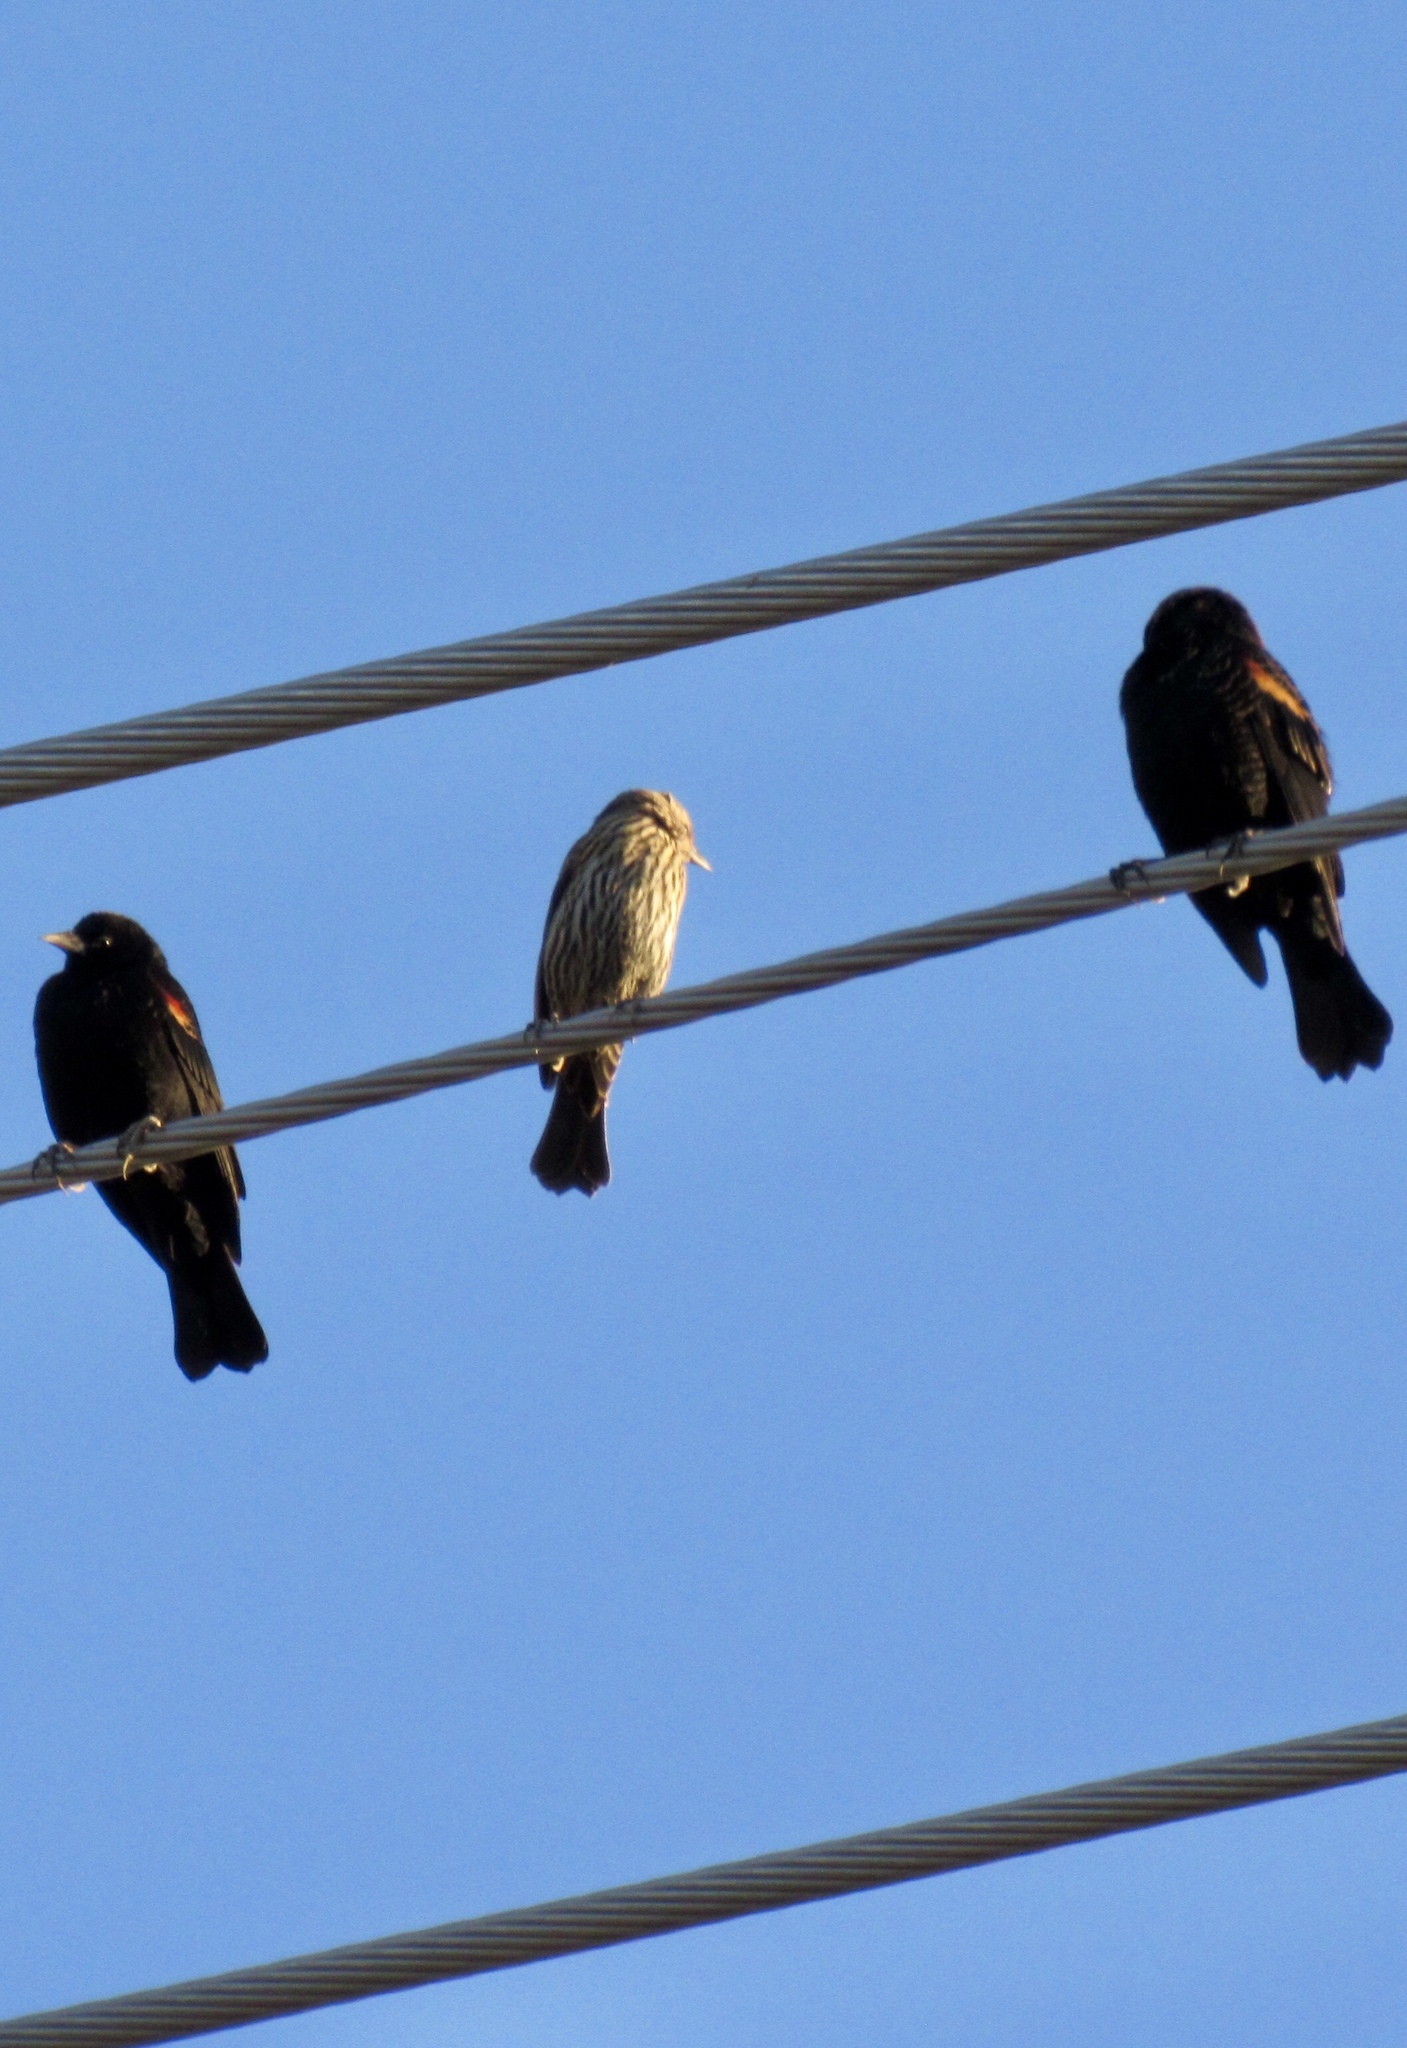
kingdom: Animalia
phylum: Chordata
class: Aves
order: Passeriformes
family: Icteridae
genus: Agelaius
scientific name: Agelaius phoeniceus
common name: Red-winged blackbird
